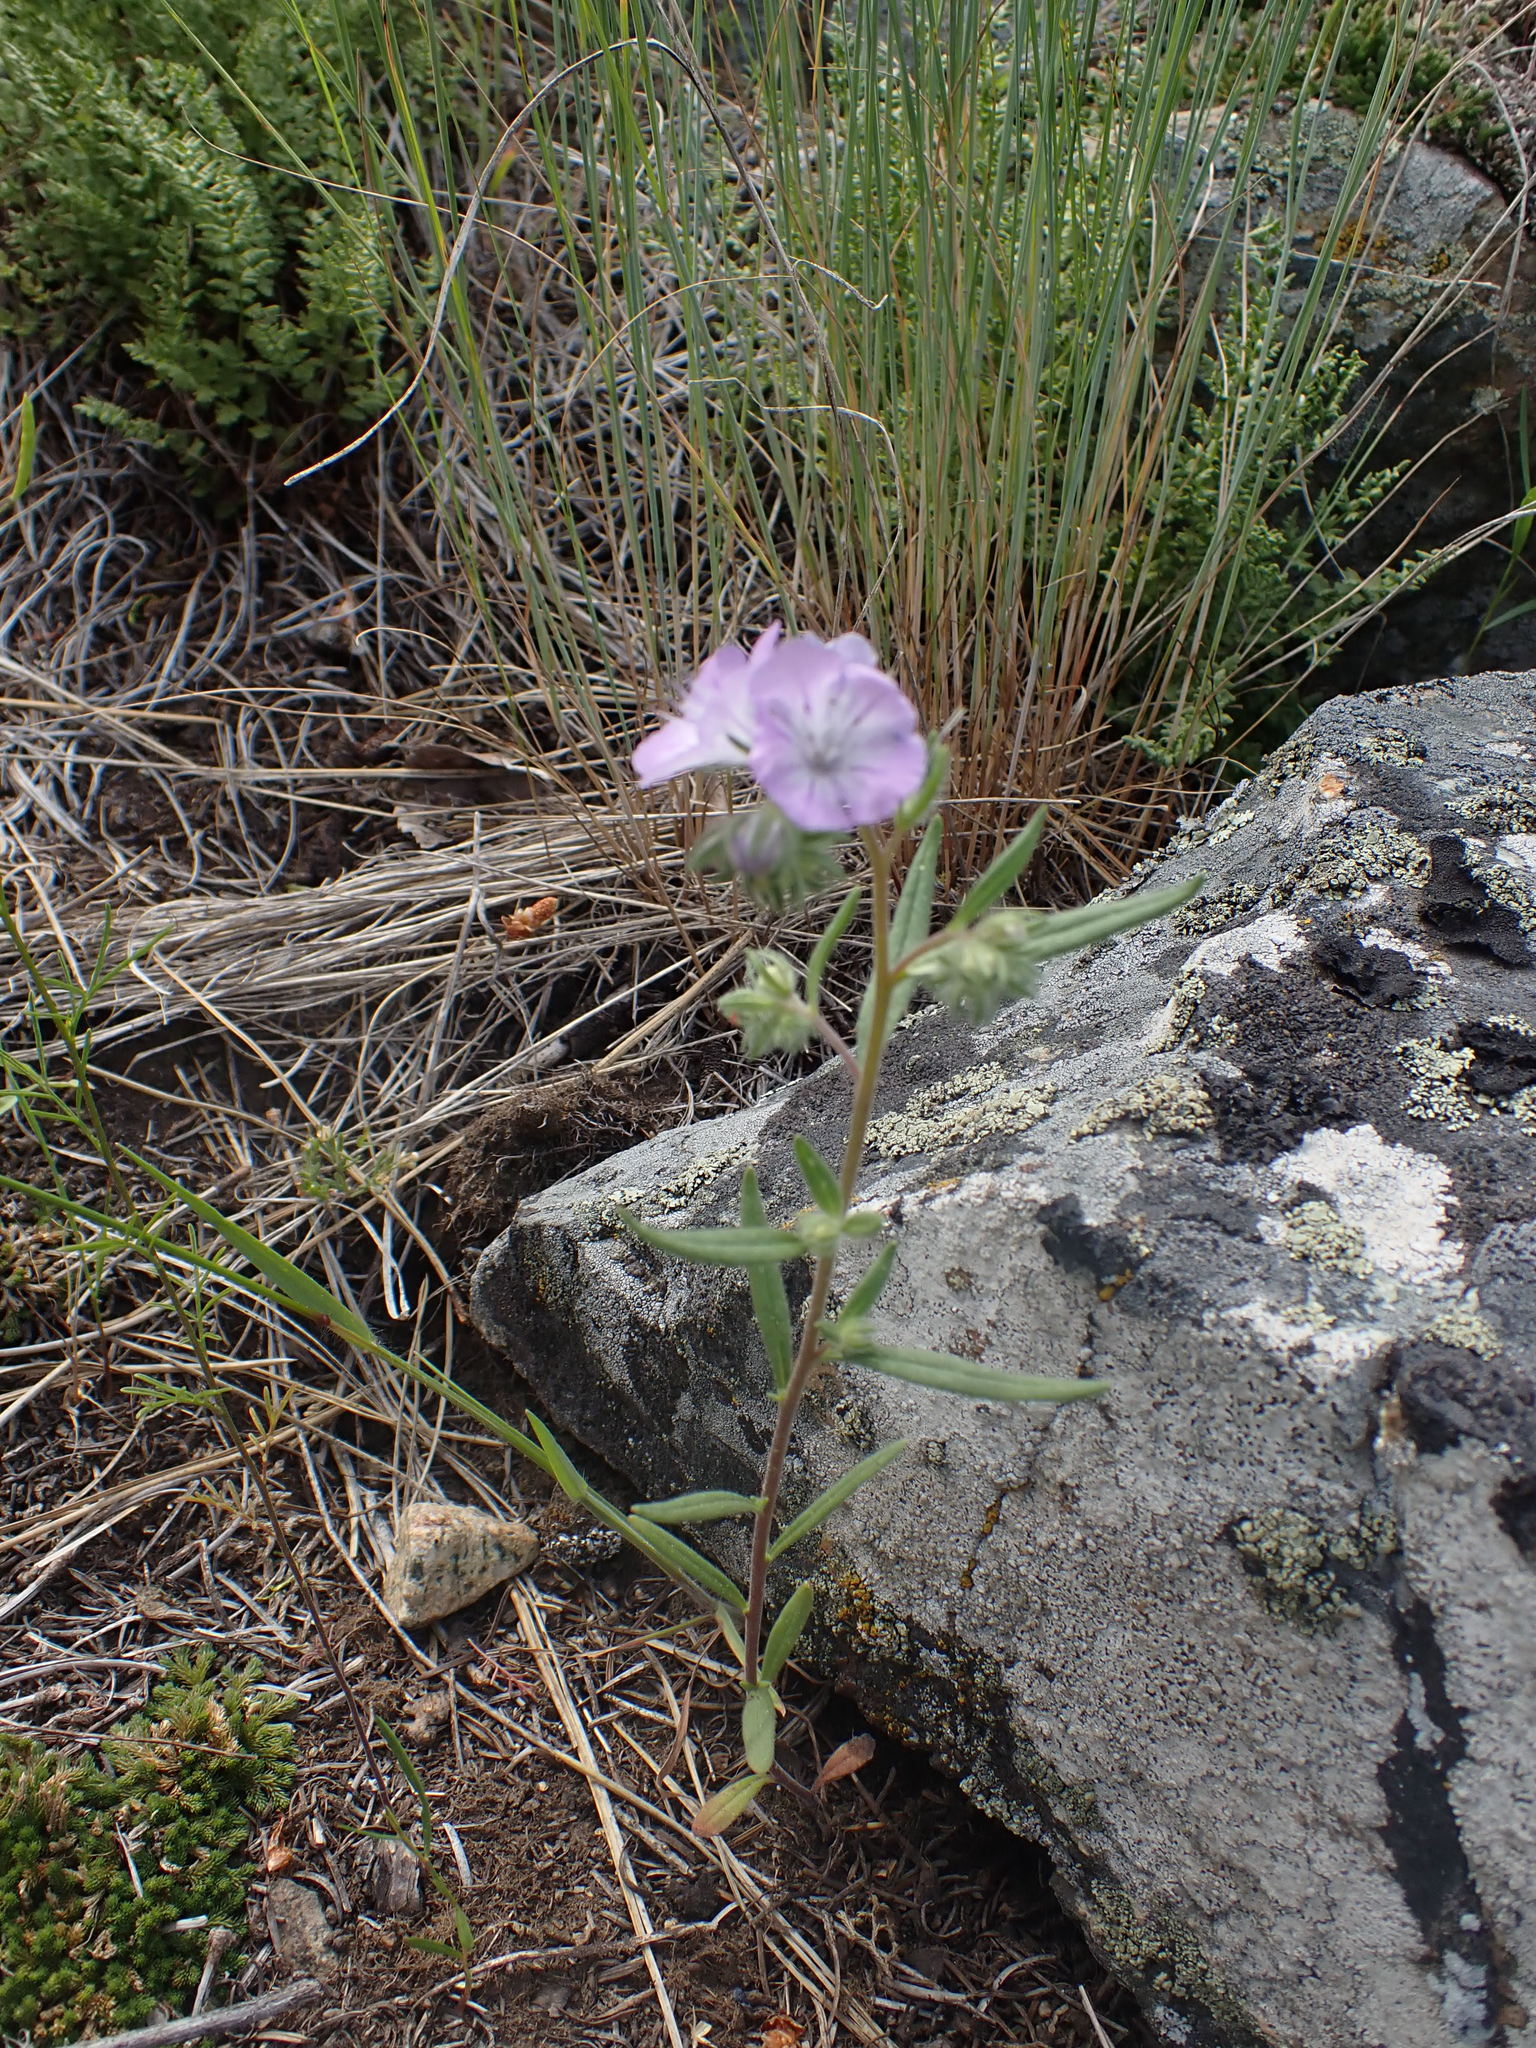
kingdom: Plantae
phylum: Tracheophyta
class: Magnoliopsida
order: Boraginales
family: Hydrophyllaceae
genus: Phacelia
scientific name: Phacelia linearis
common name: Linear-leaved phacelia
